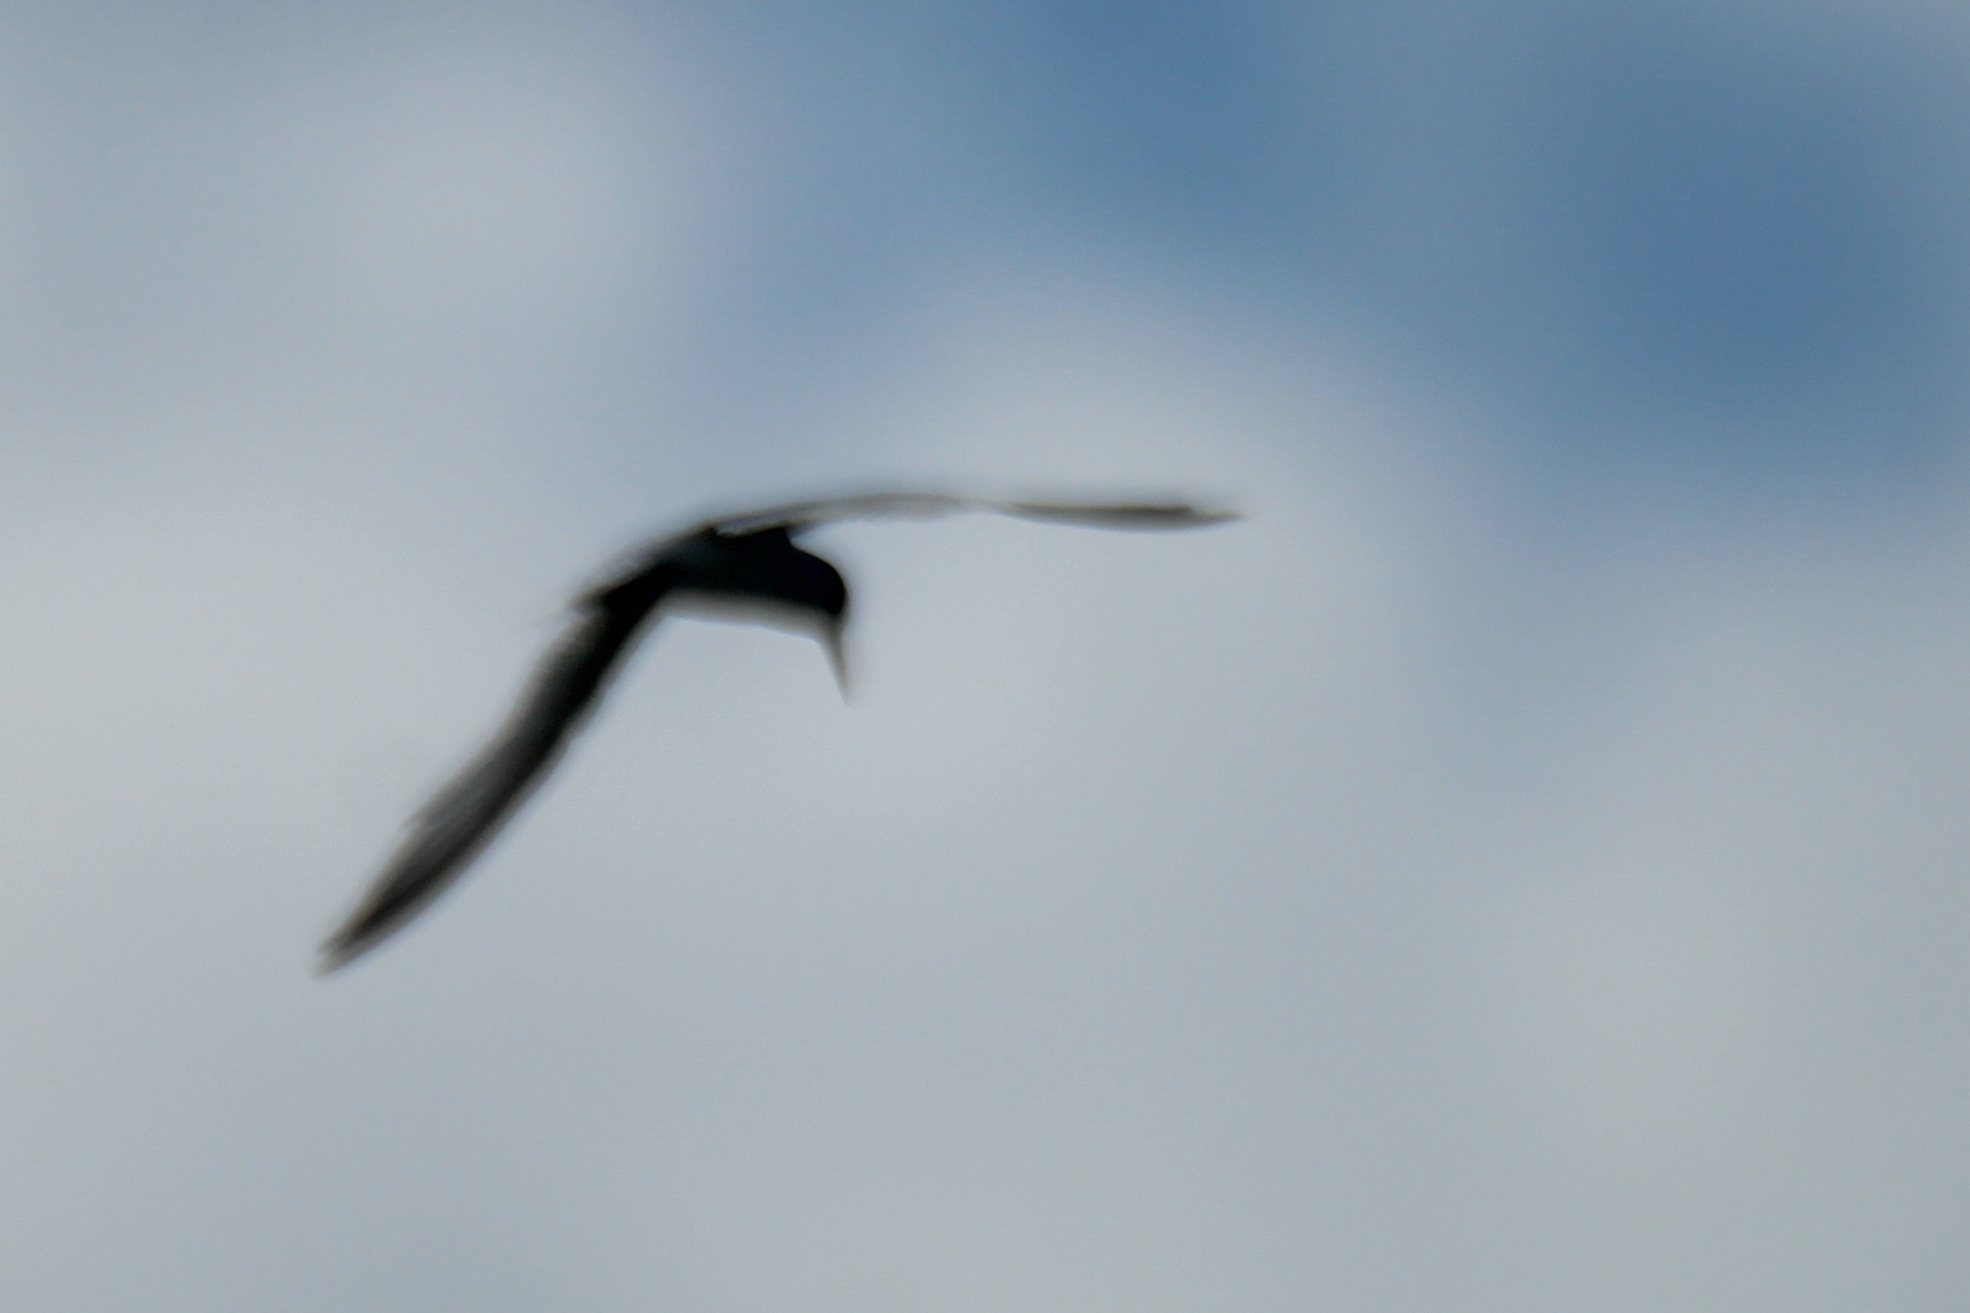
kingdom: Animalia
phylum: Chordata
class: Aves
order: Charadriiformes
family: Laridae
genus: Sternula
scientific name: Sternula albifrons
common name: Little tern
